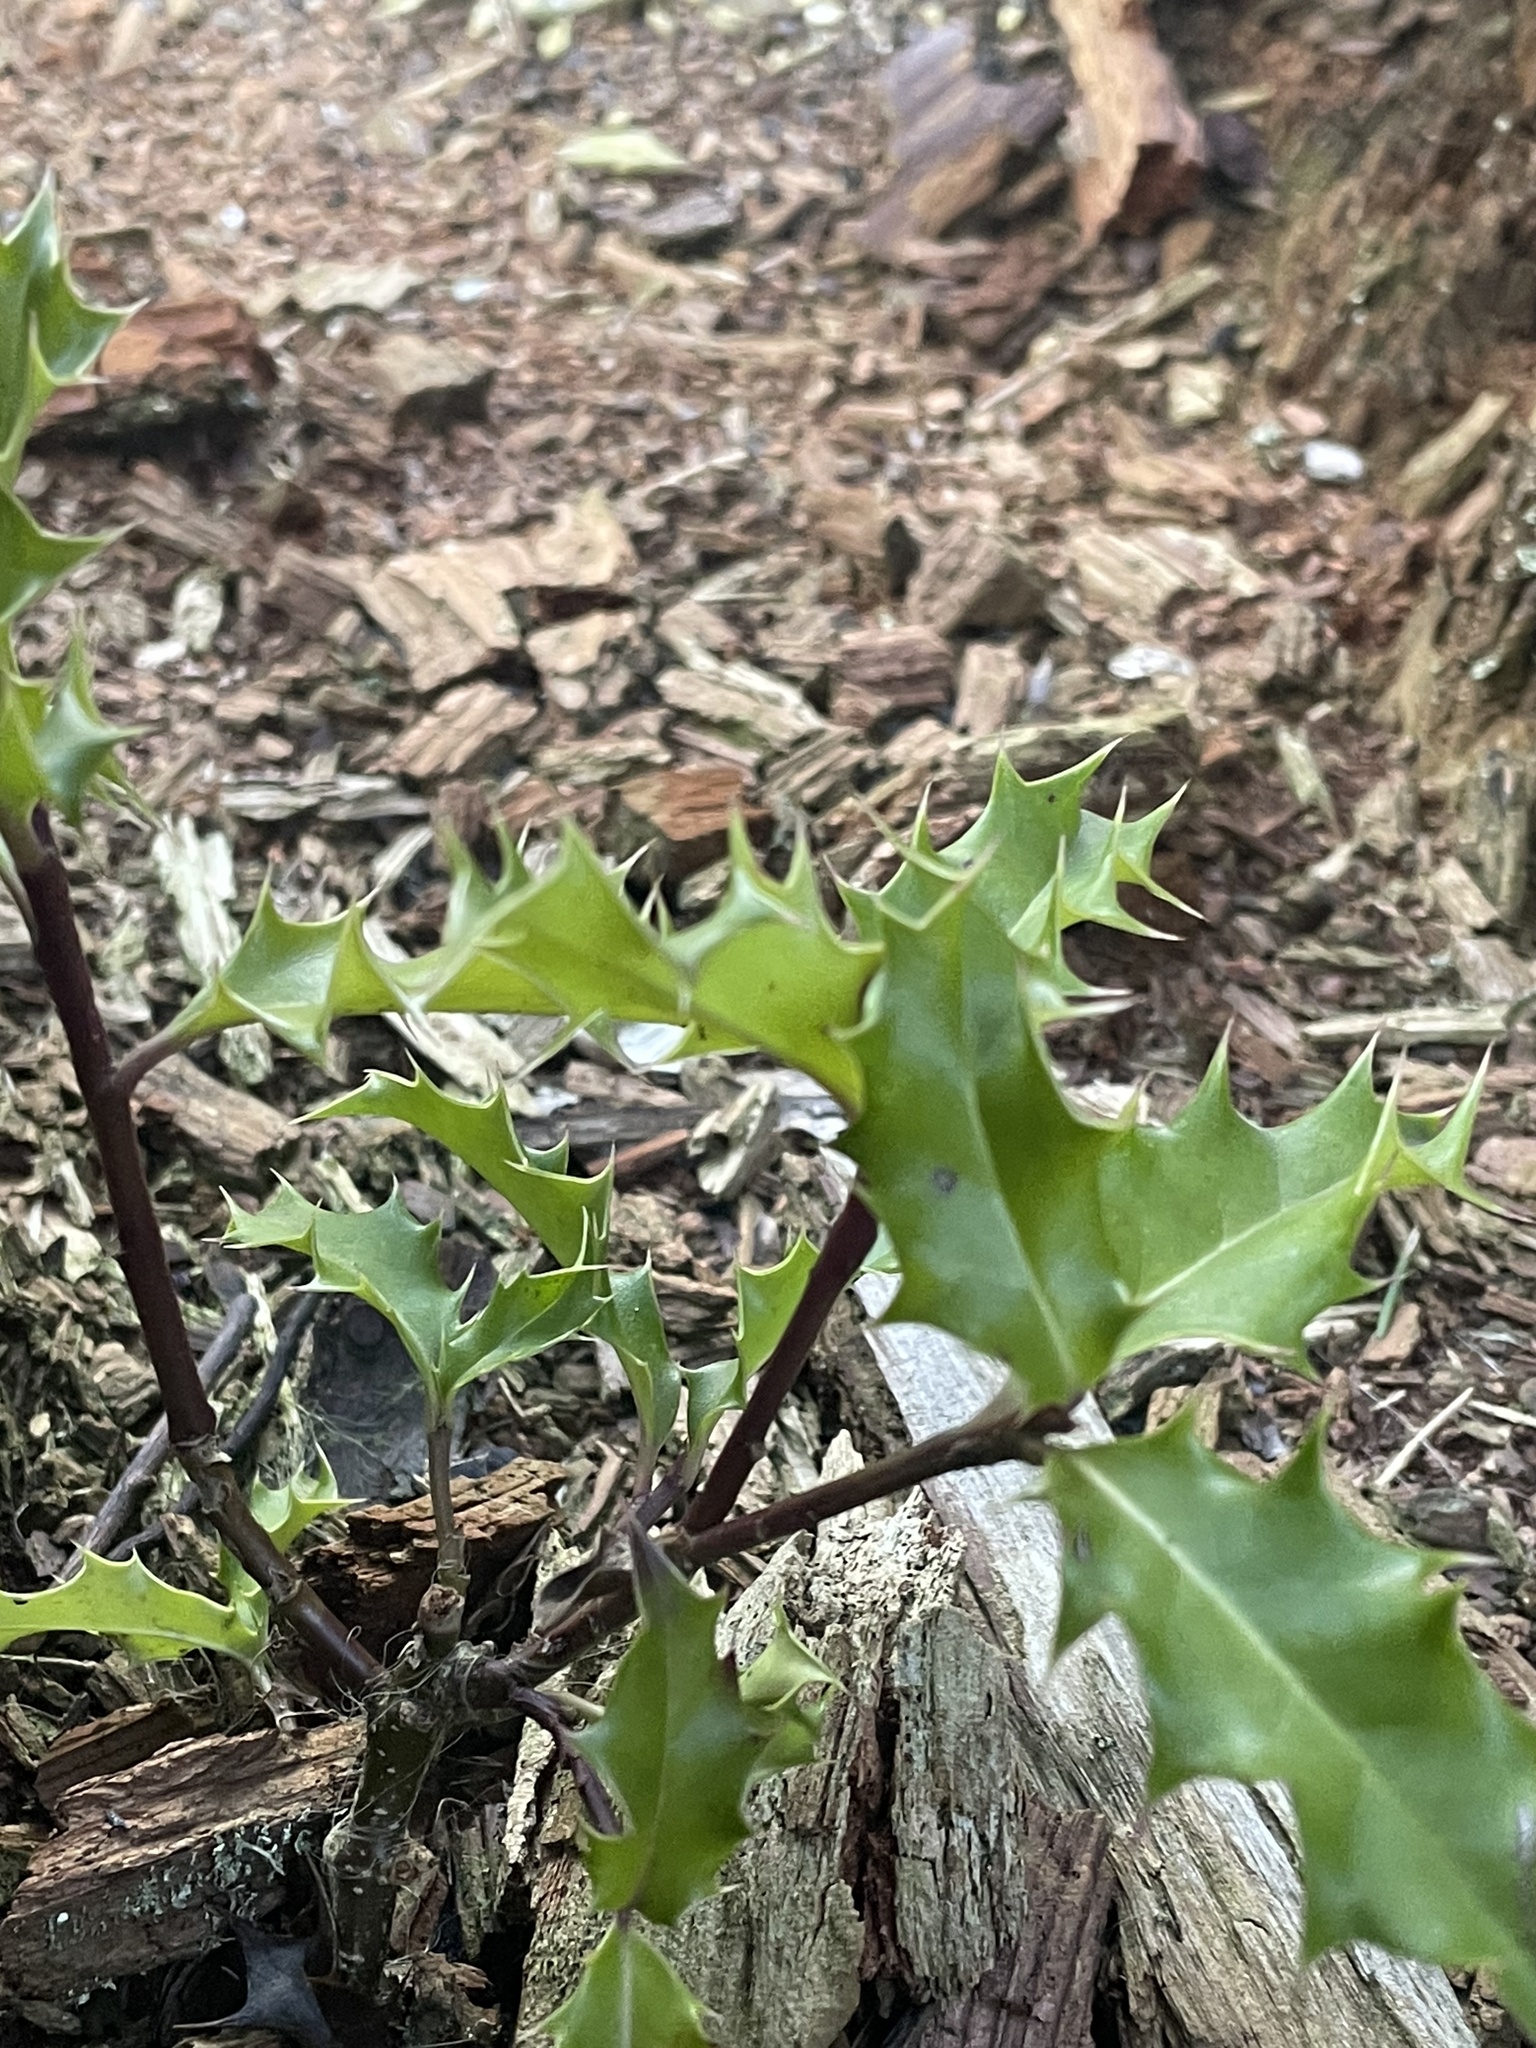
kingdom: Plantae
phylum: Tracheophyta
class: Magnoliopsida
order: Aquifoliales
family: Aquifoliaceae
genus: Ilex
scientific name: Ilex aquifolium
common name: English holly
